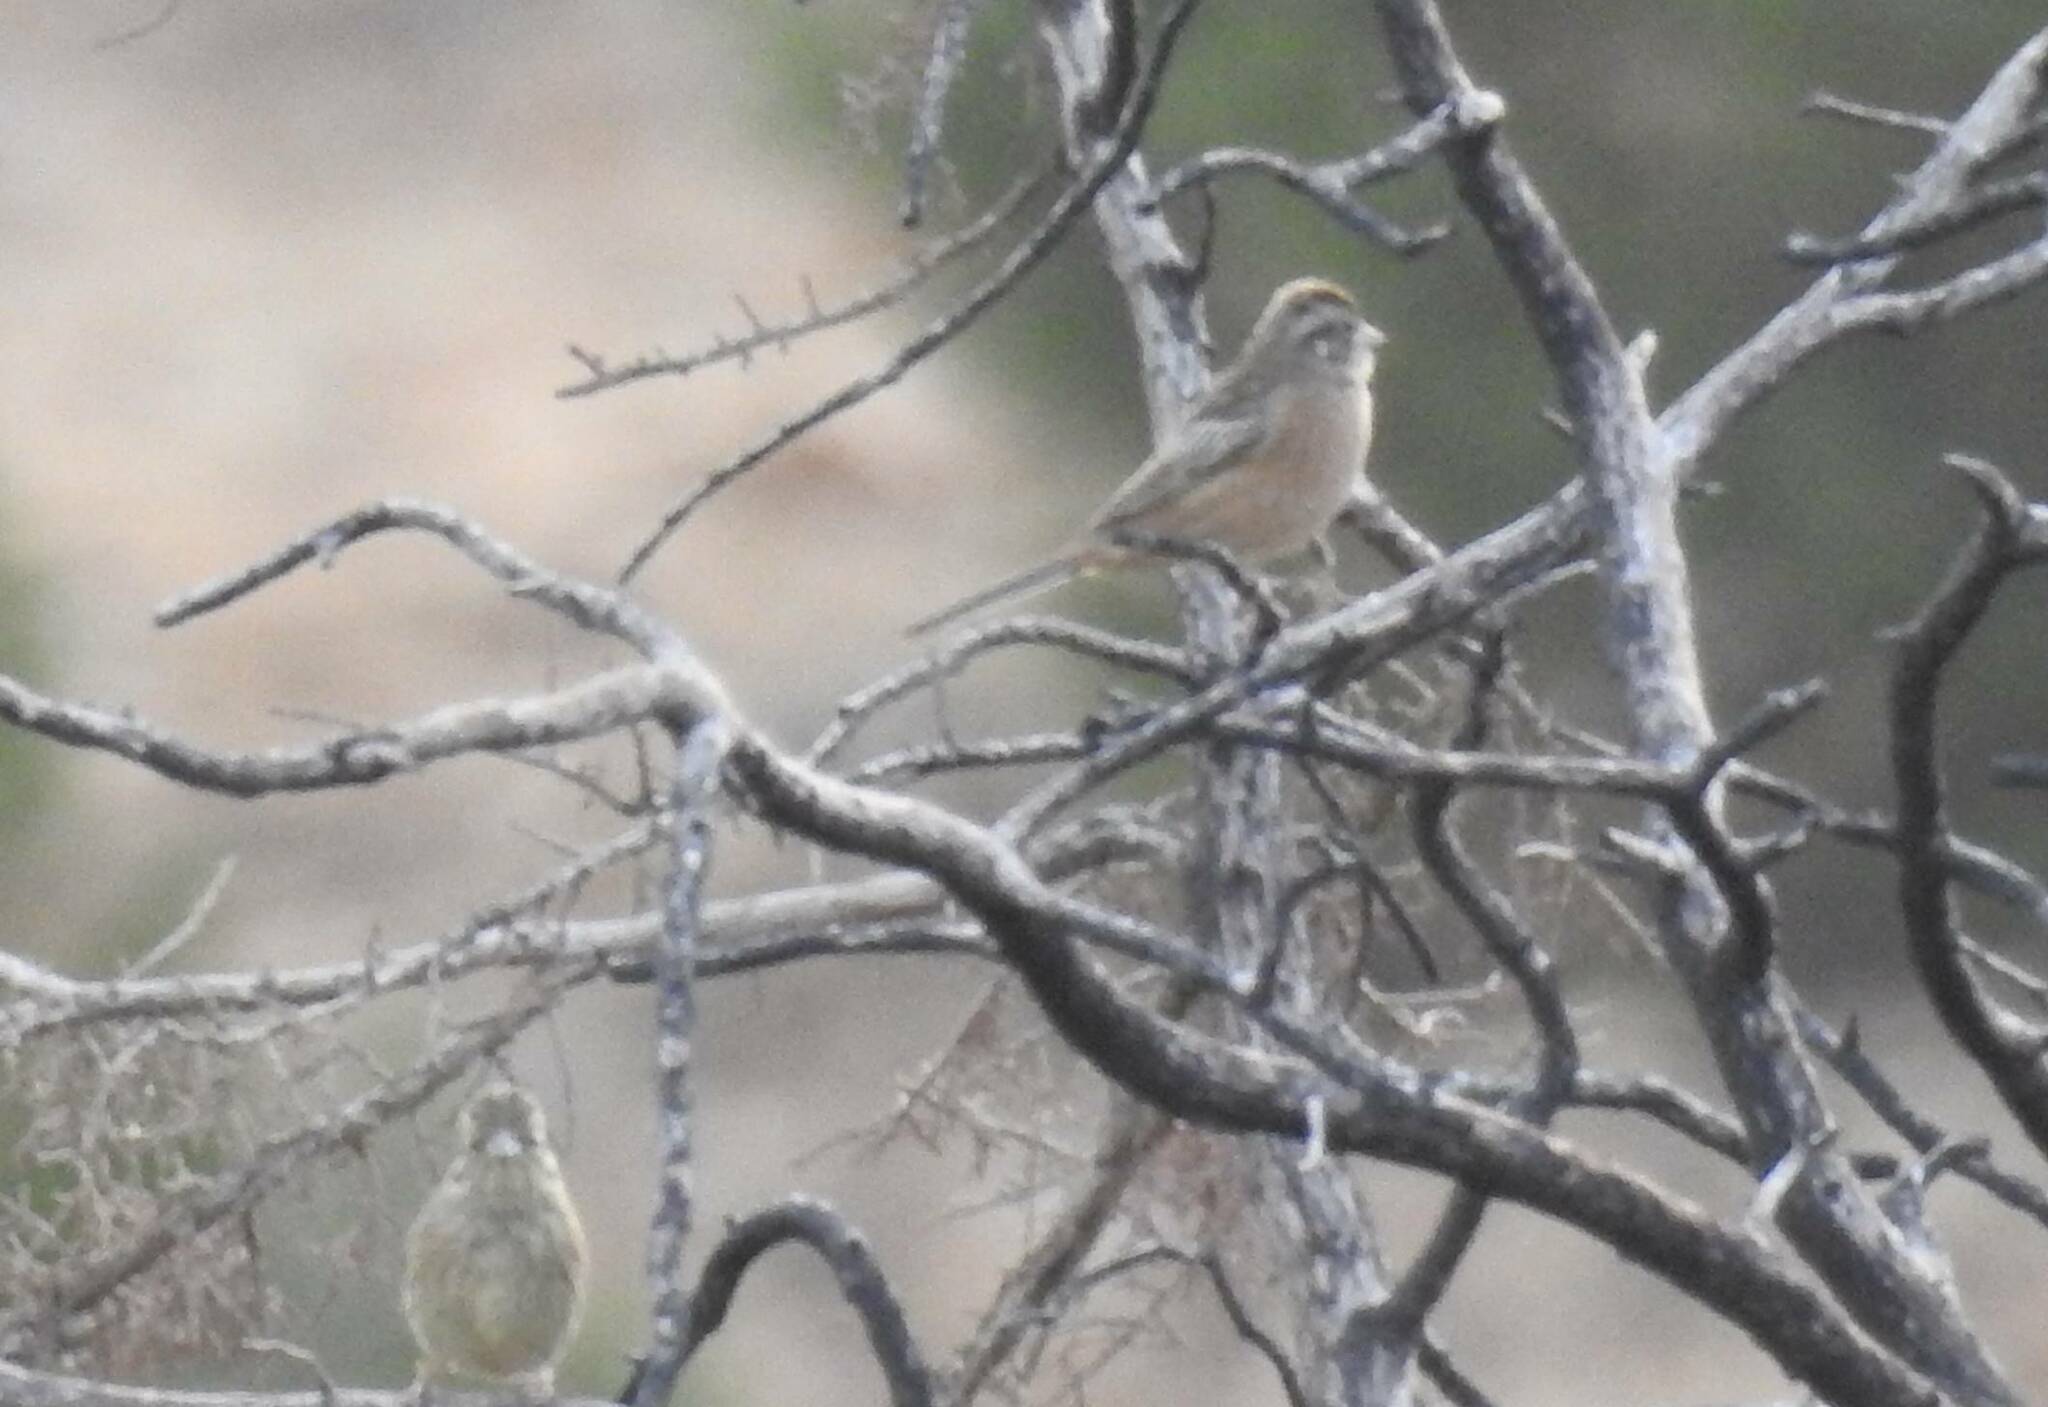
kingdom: Animalia
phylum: Chordata
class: Aves
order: Passeriformes
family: Emberizidae
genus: Emberiza
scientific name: Emberiza cia
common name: Rock bunting
